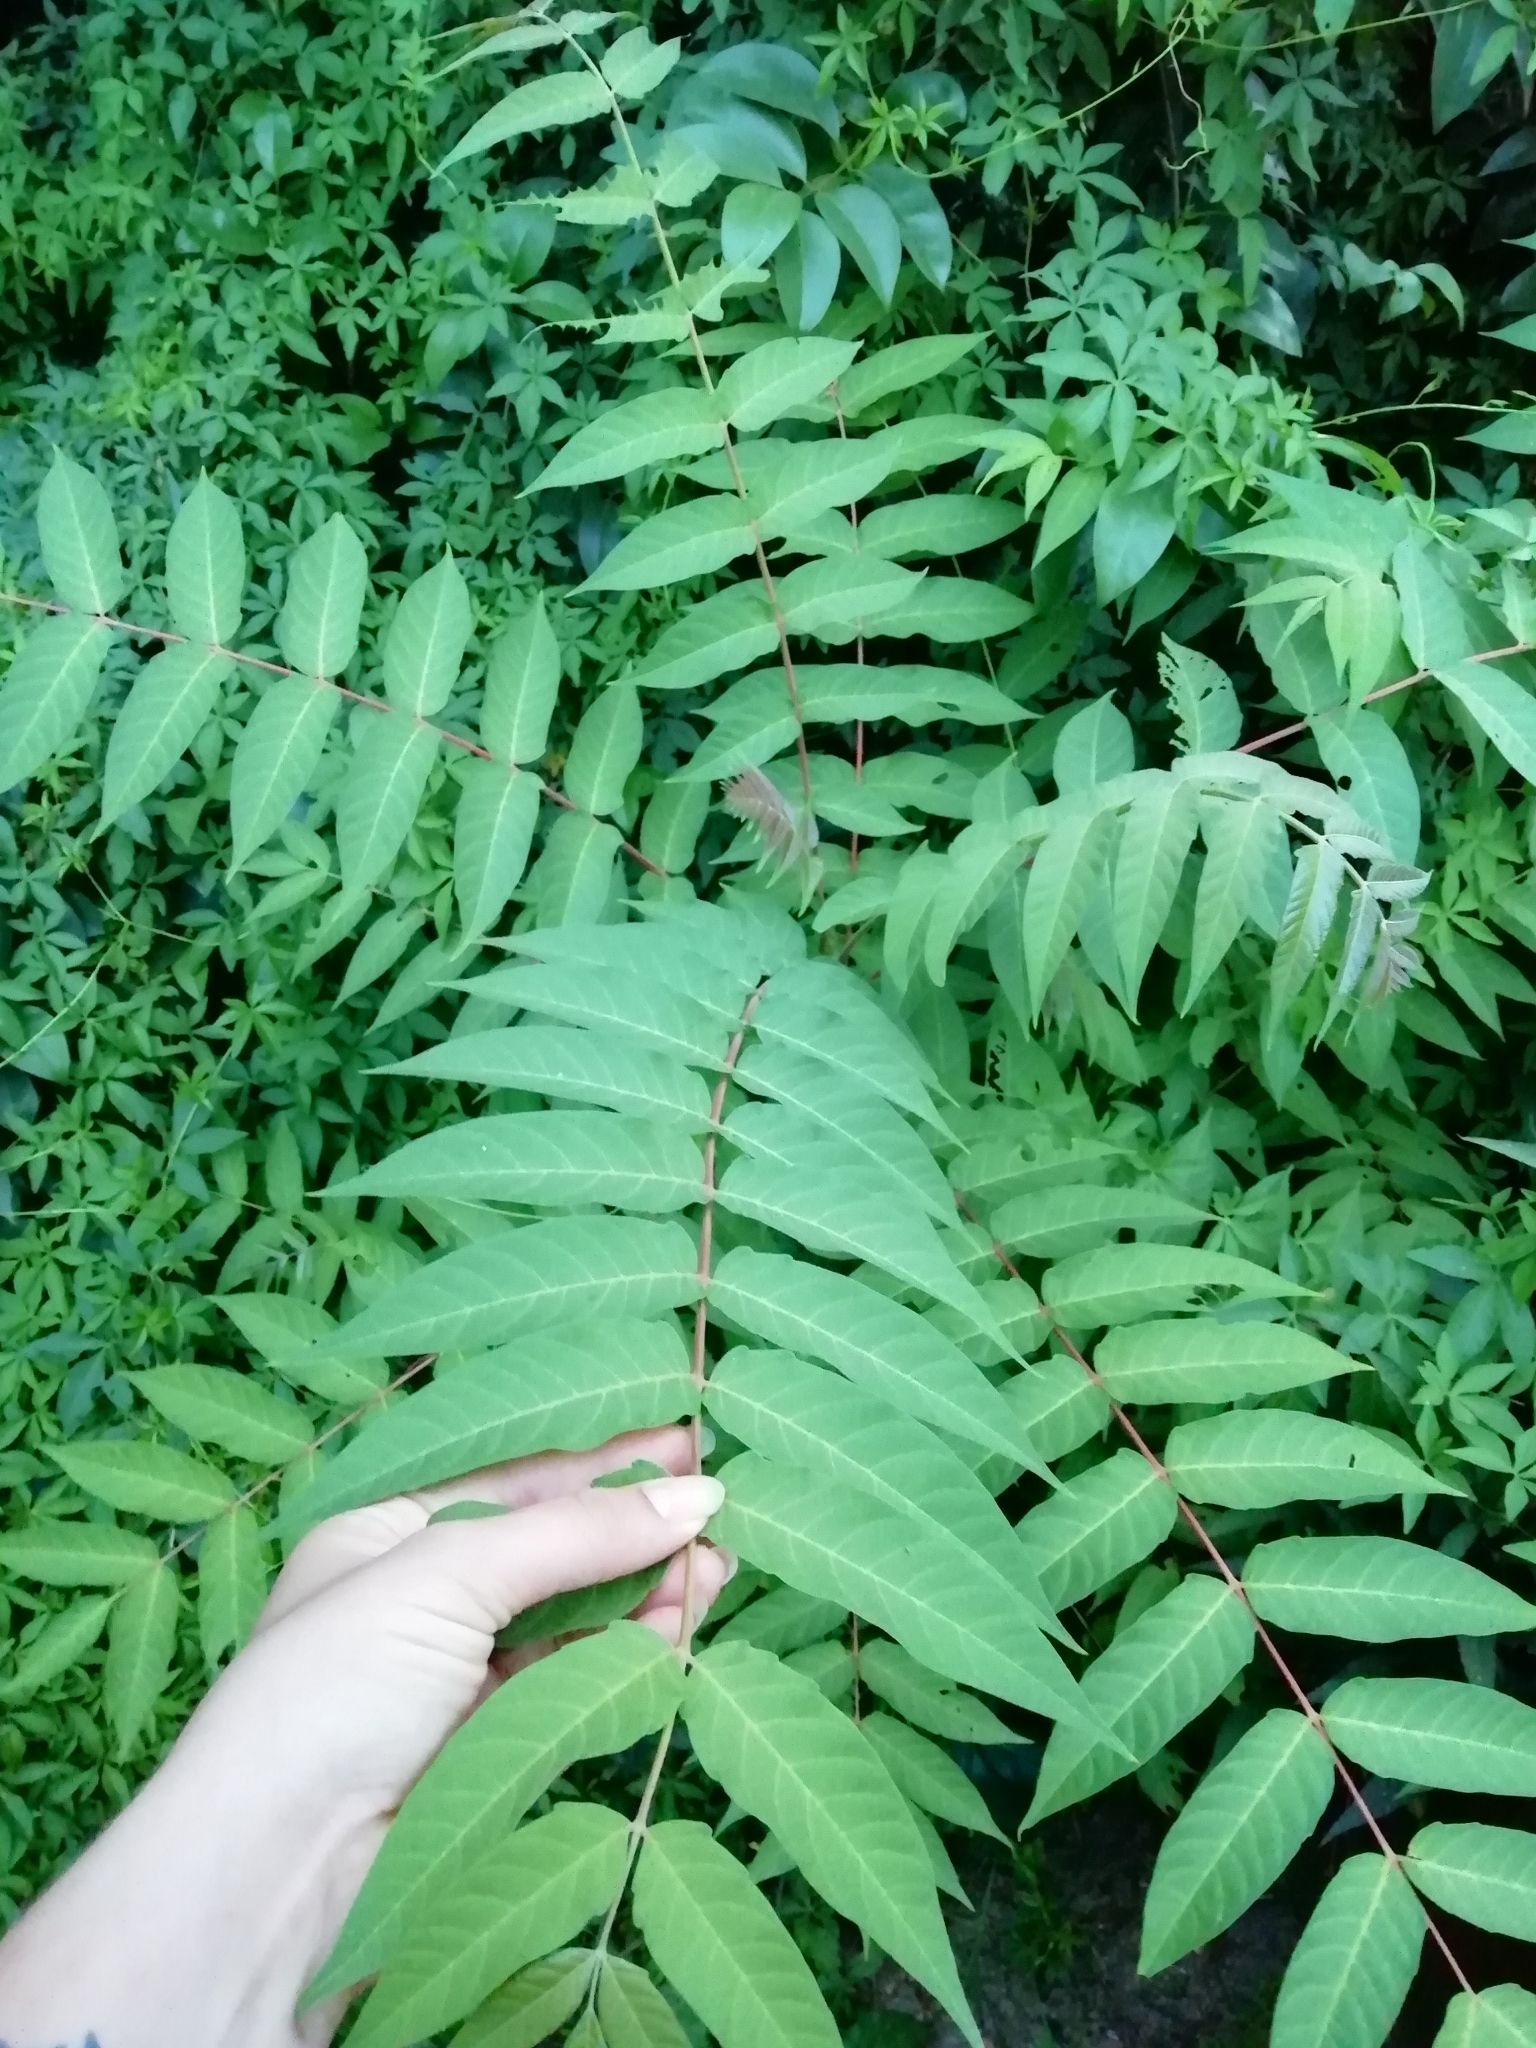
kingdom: Plantae
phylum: Tracheophyta
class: Magnoliopsida
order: Sapindales
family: Simaroubaceae
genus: Ailanthus
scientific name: Ailanthus altissima
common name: Tree-of-heaven
